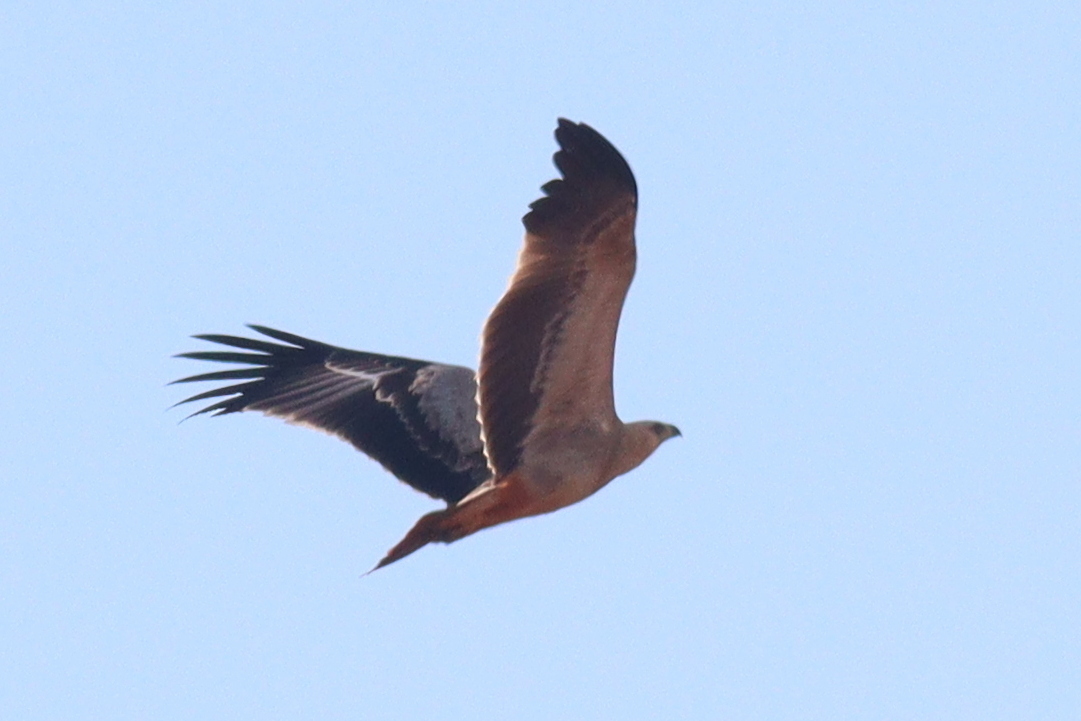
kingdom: Animalia
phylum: Chordata
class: Aves
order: Accipitriformes
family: Accipitridae
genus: Aquila
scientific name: Aquila rapax
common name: Tawny eagle
